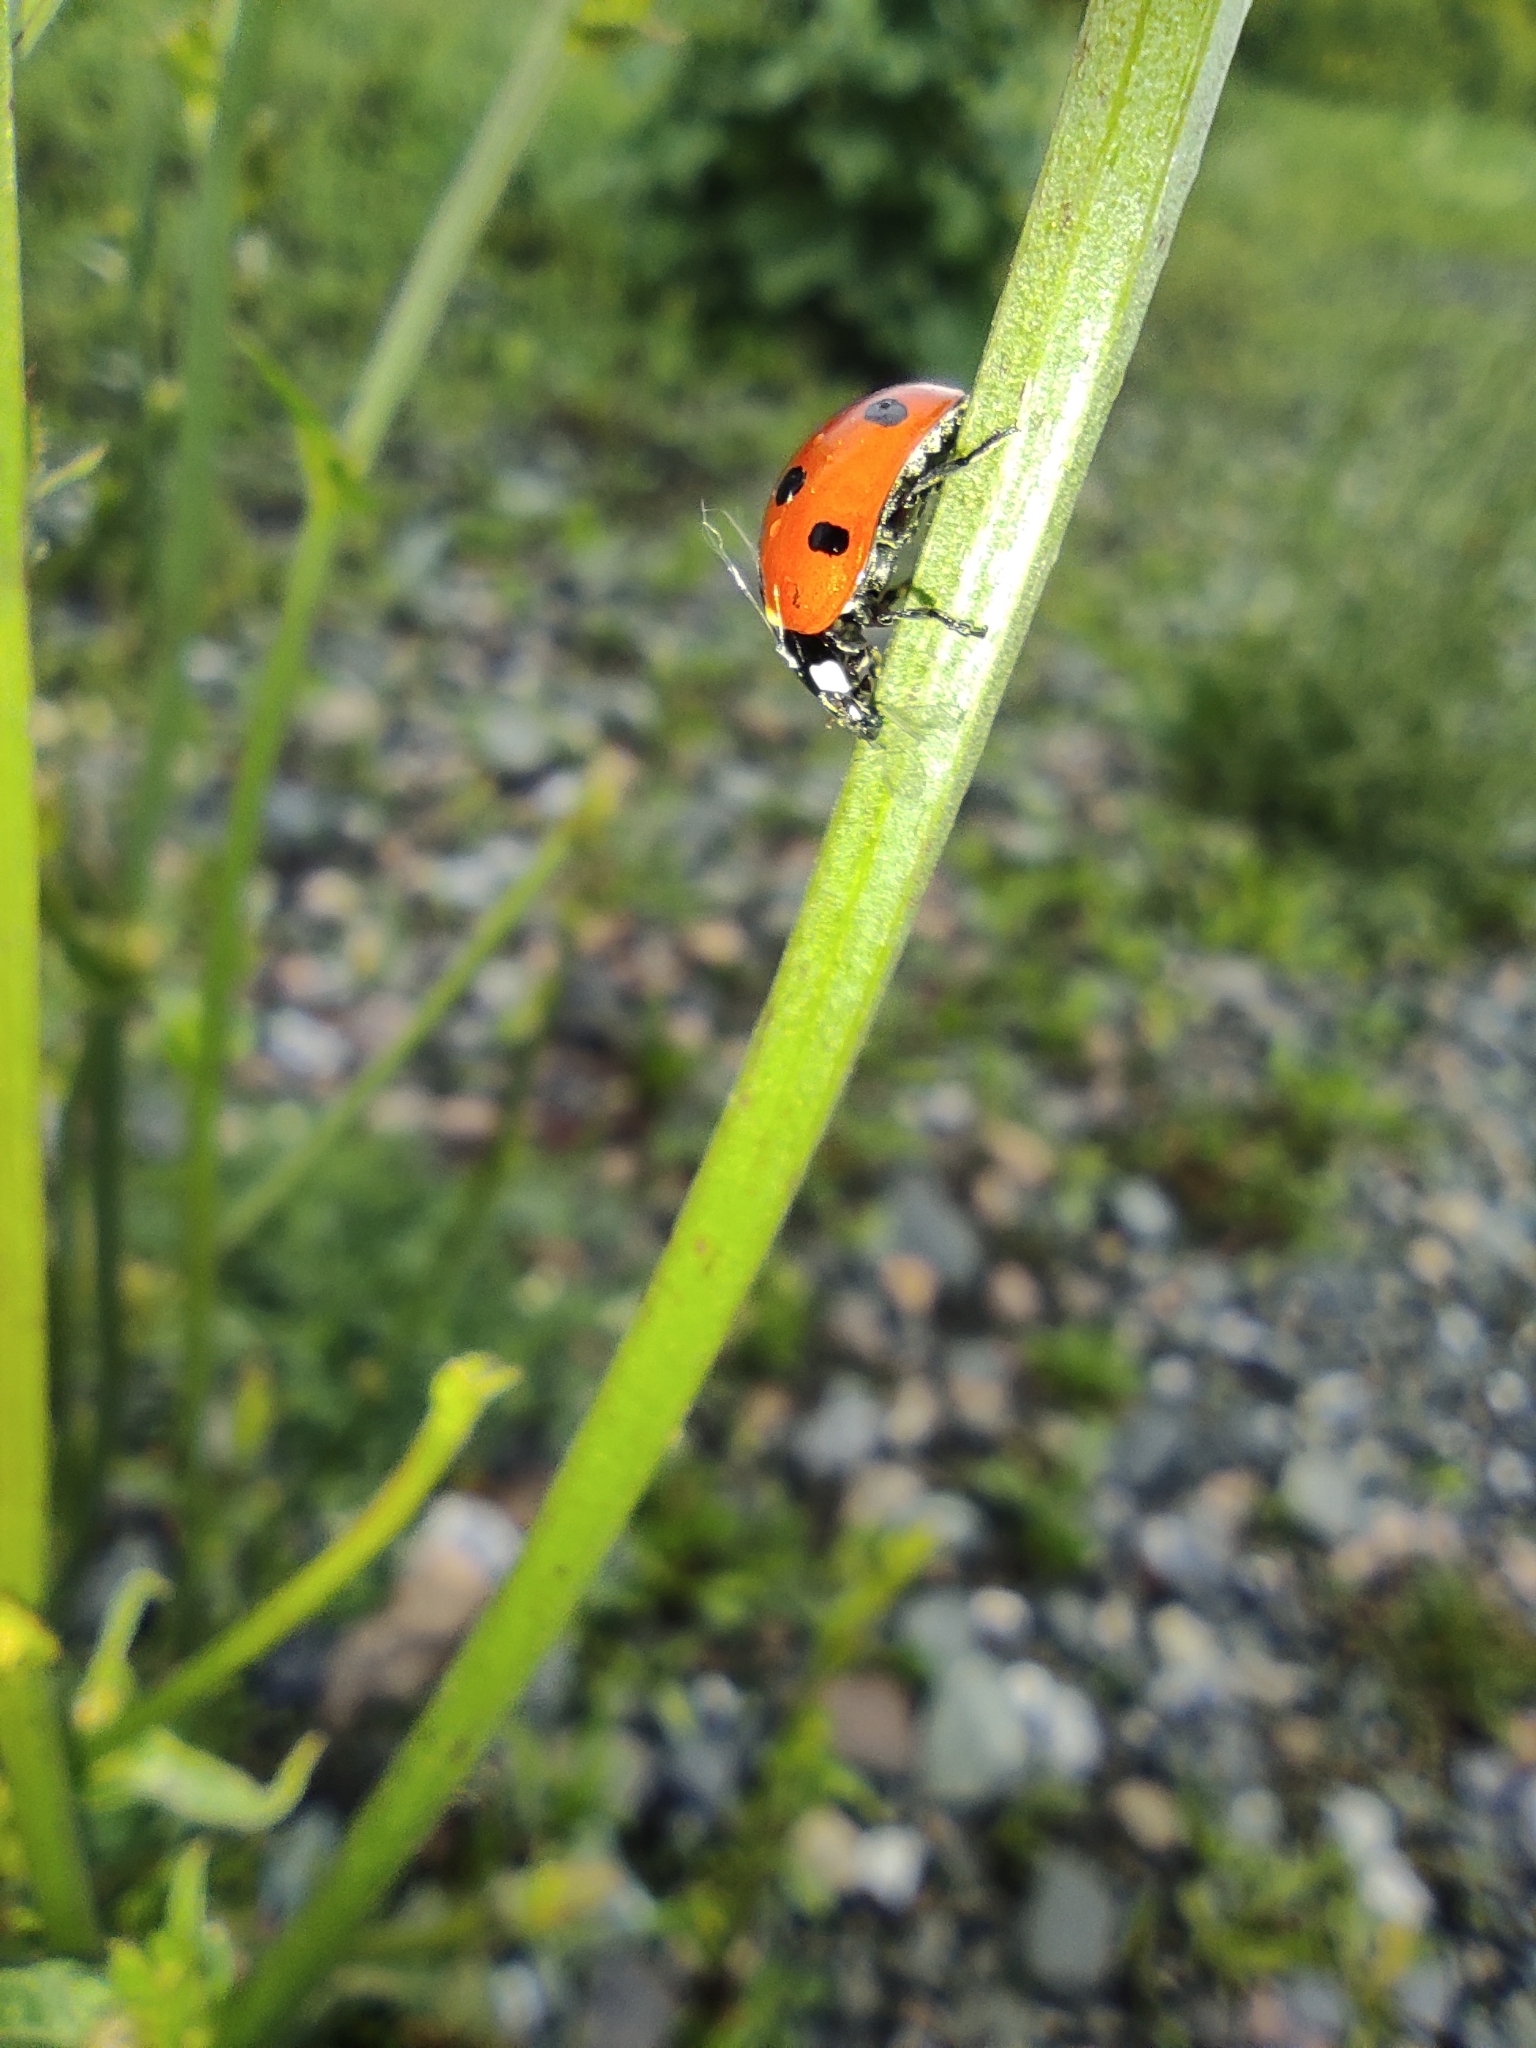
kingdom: Animalia
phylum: Arthropoda
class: Insecta
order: Coleoptera
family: Coccinellidae
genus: Coccinella
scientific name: Coccinella septempunctata
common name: Sevenspotted lady beetle
